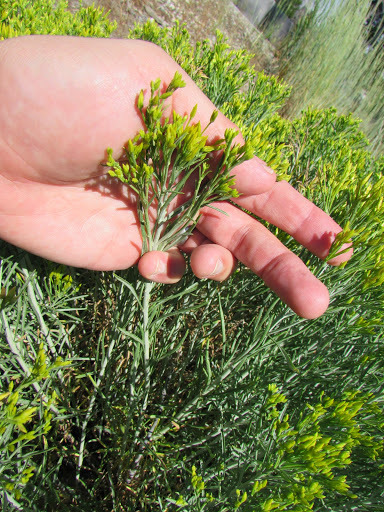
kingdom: Plantae
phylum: Tracheophyta
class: Magnoliopsida
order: Asterales
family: Asteraceae
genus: Ericameria
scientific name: Ericameria nauseosa
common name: Rubber rabbitbrush
